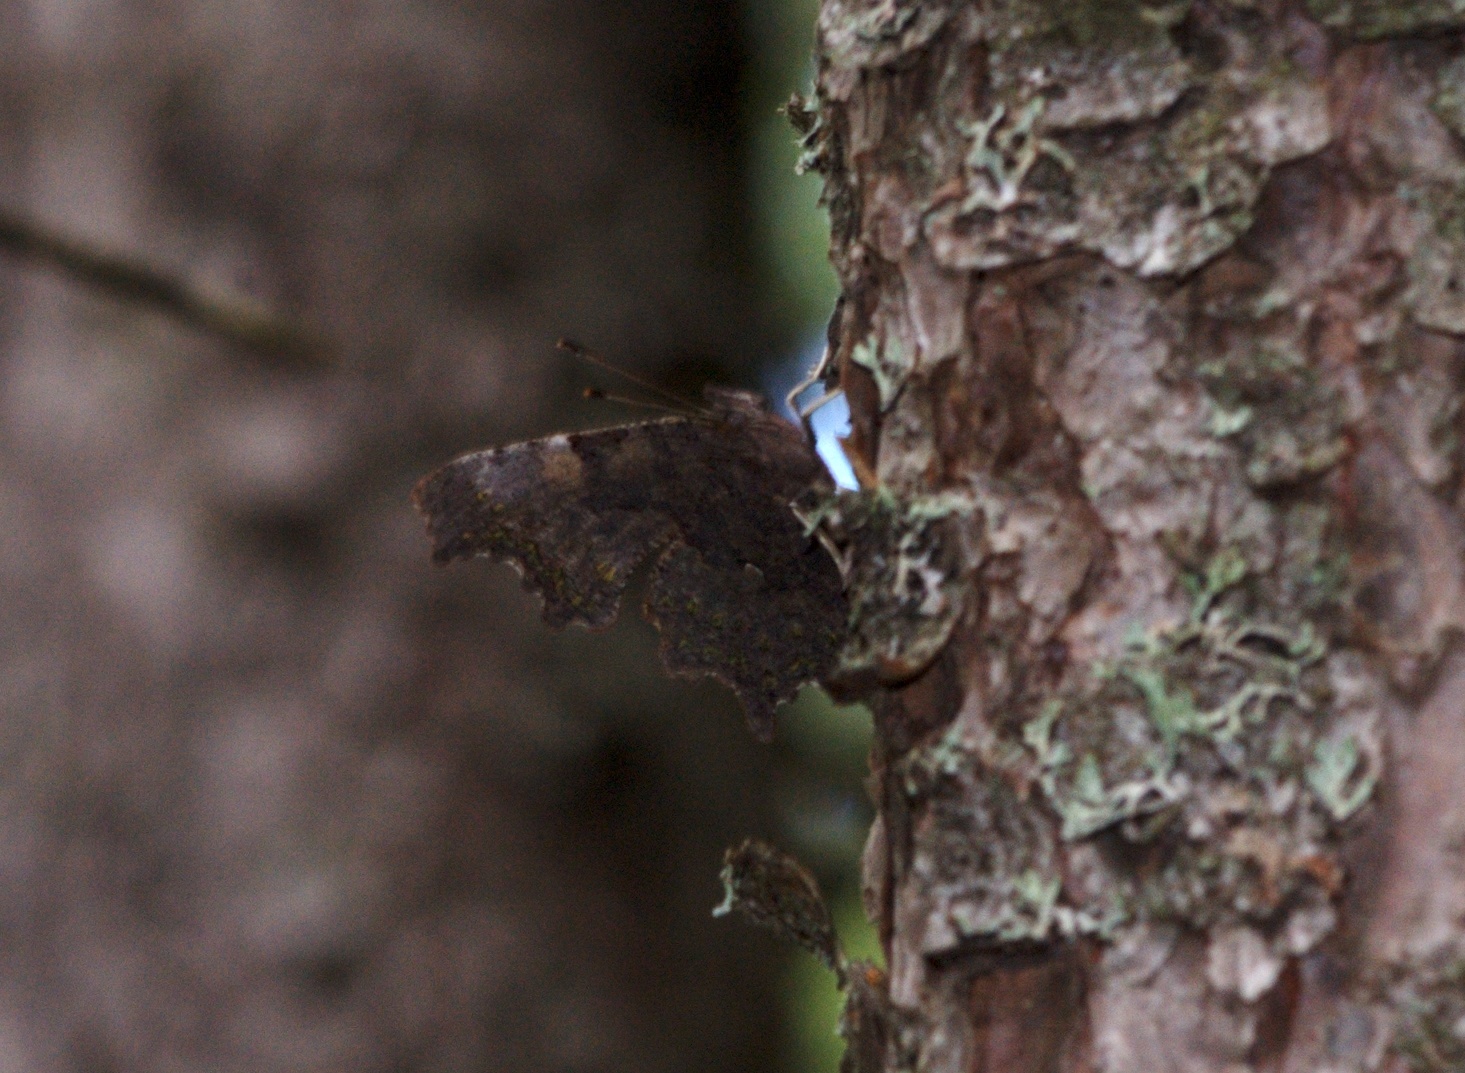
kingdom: Animalia
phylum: Arthropoda
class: Insecta
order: Lepidoptera
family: Nymphalidae
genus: Polygonia
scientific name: Polygonia faunus
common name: Green comma
